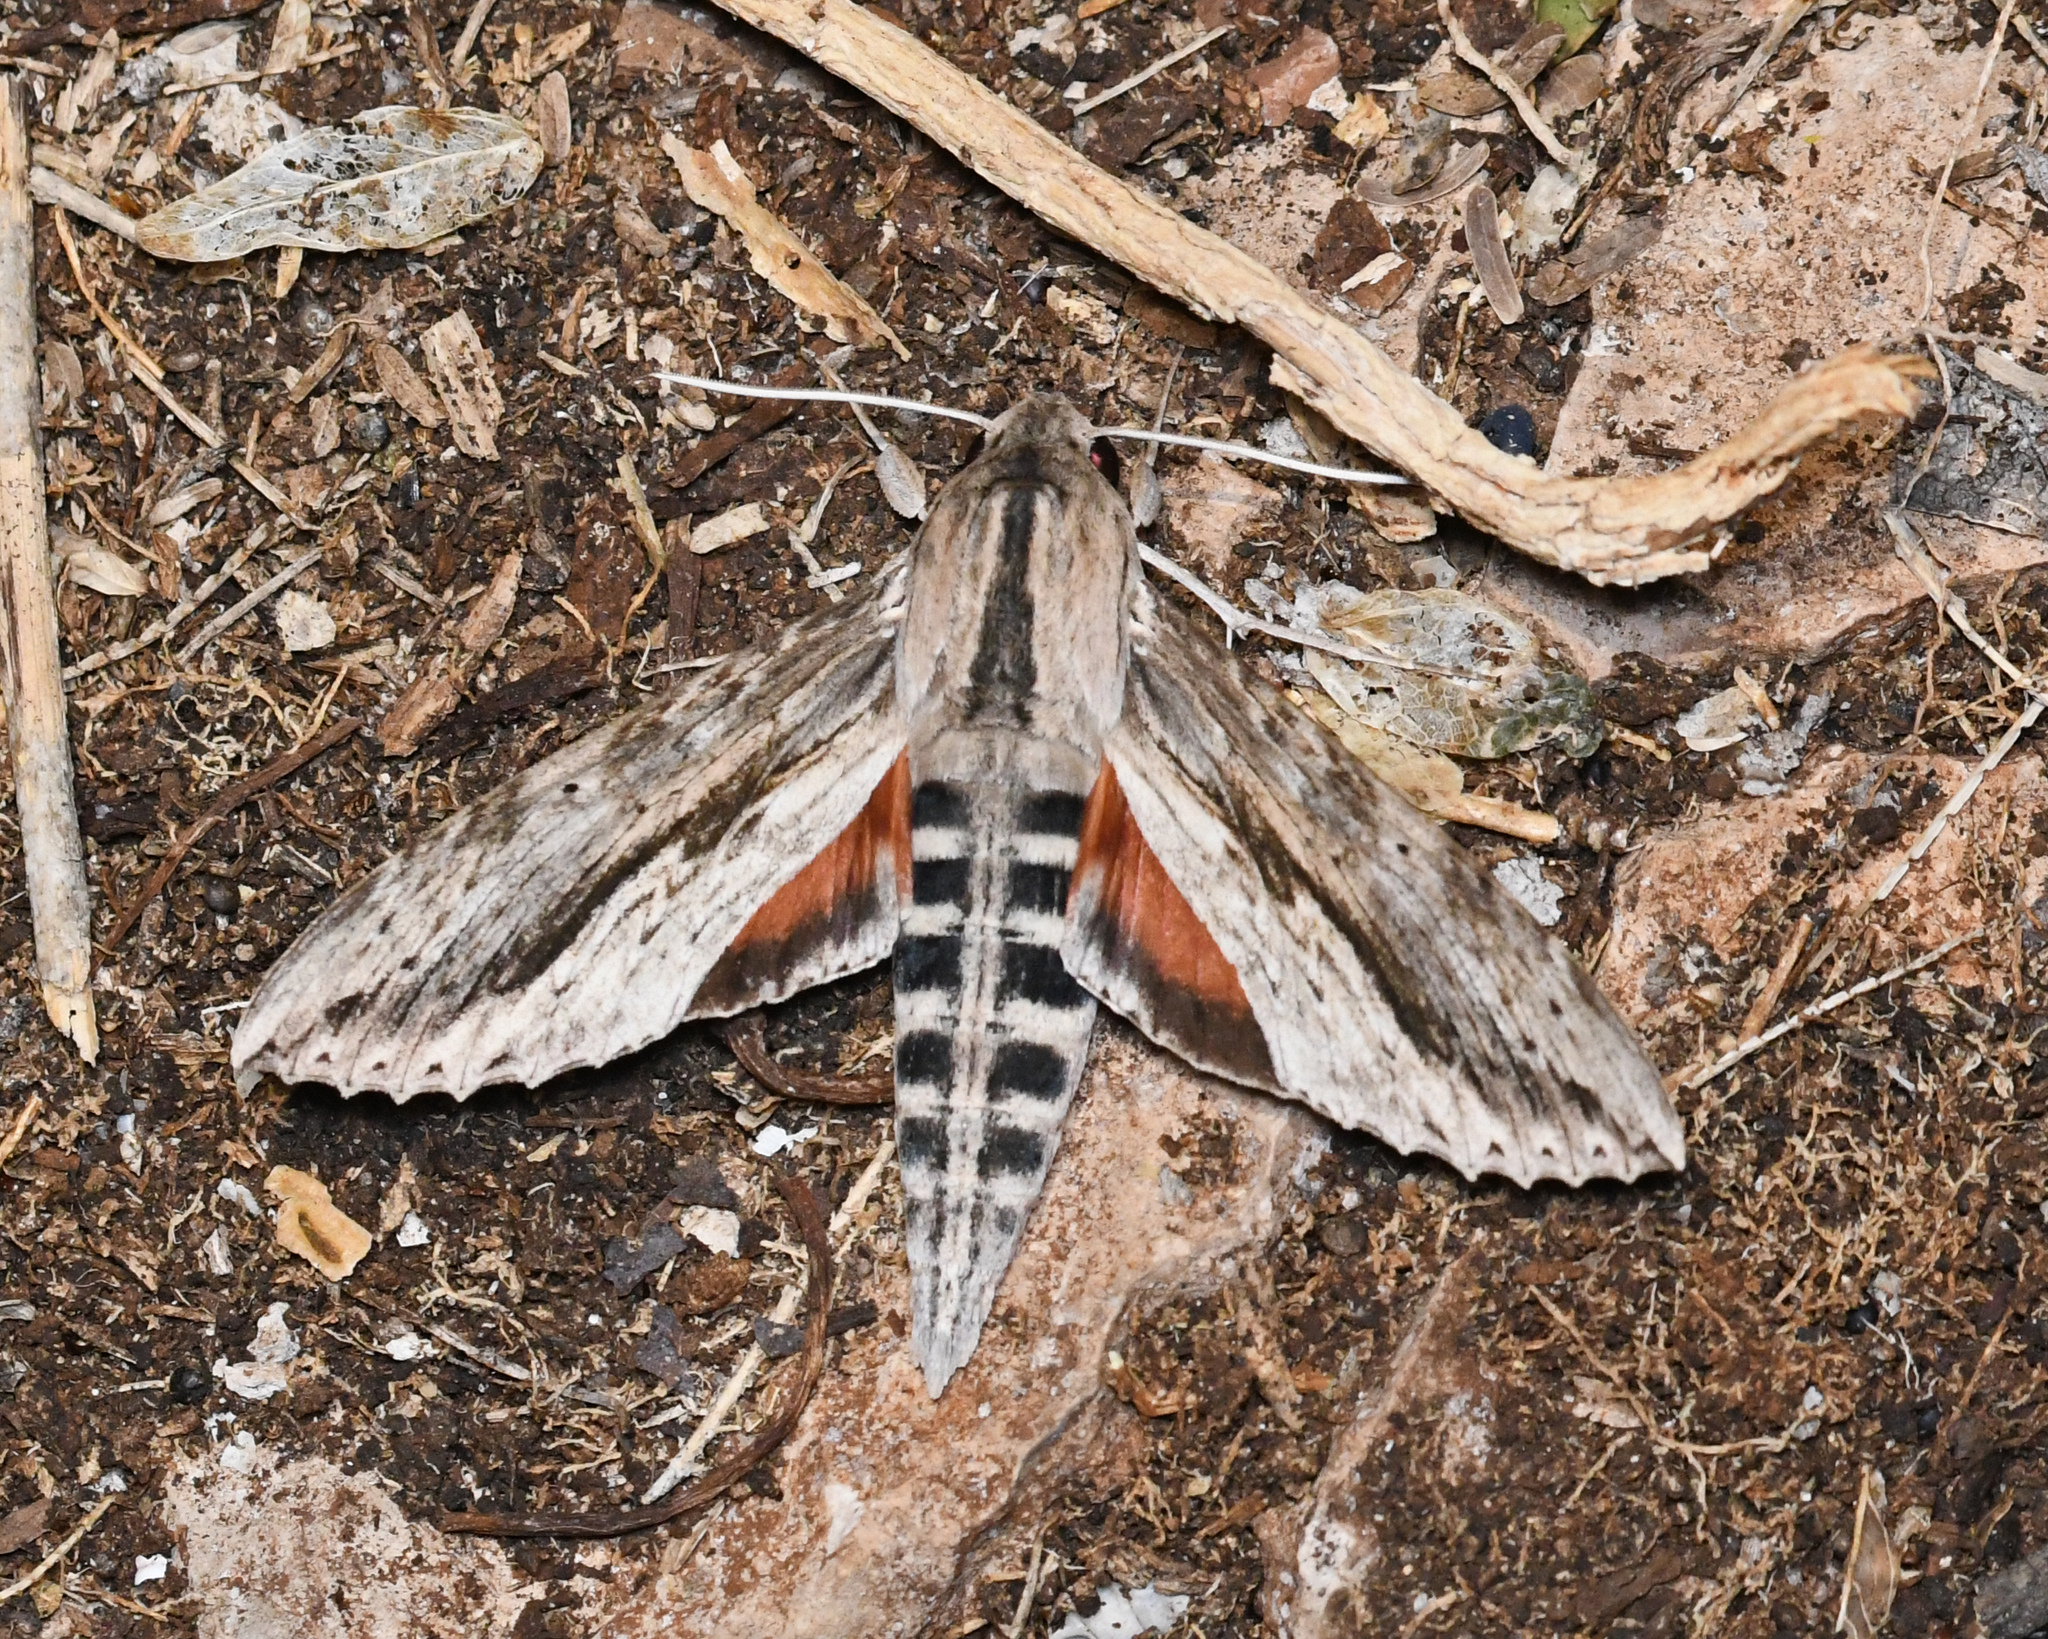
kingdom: Animalia
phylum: Arthropoda
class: Insecta
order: Lepidoptera
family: Sphingidae
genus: Erinnyis
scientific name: Erinnyis ello
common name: Ello sphinx
